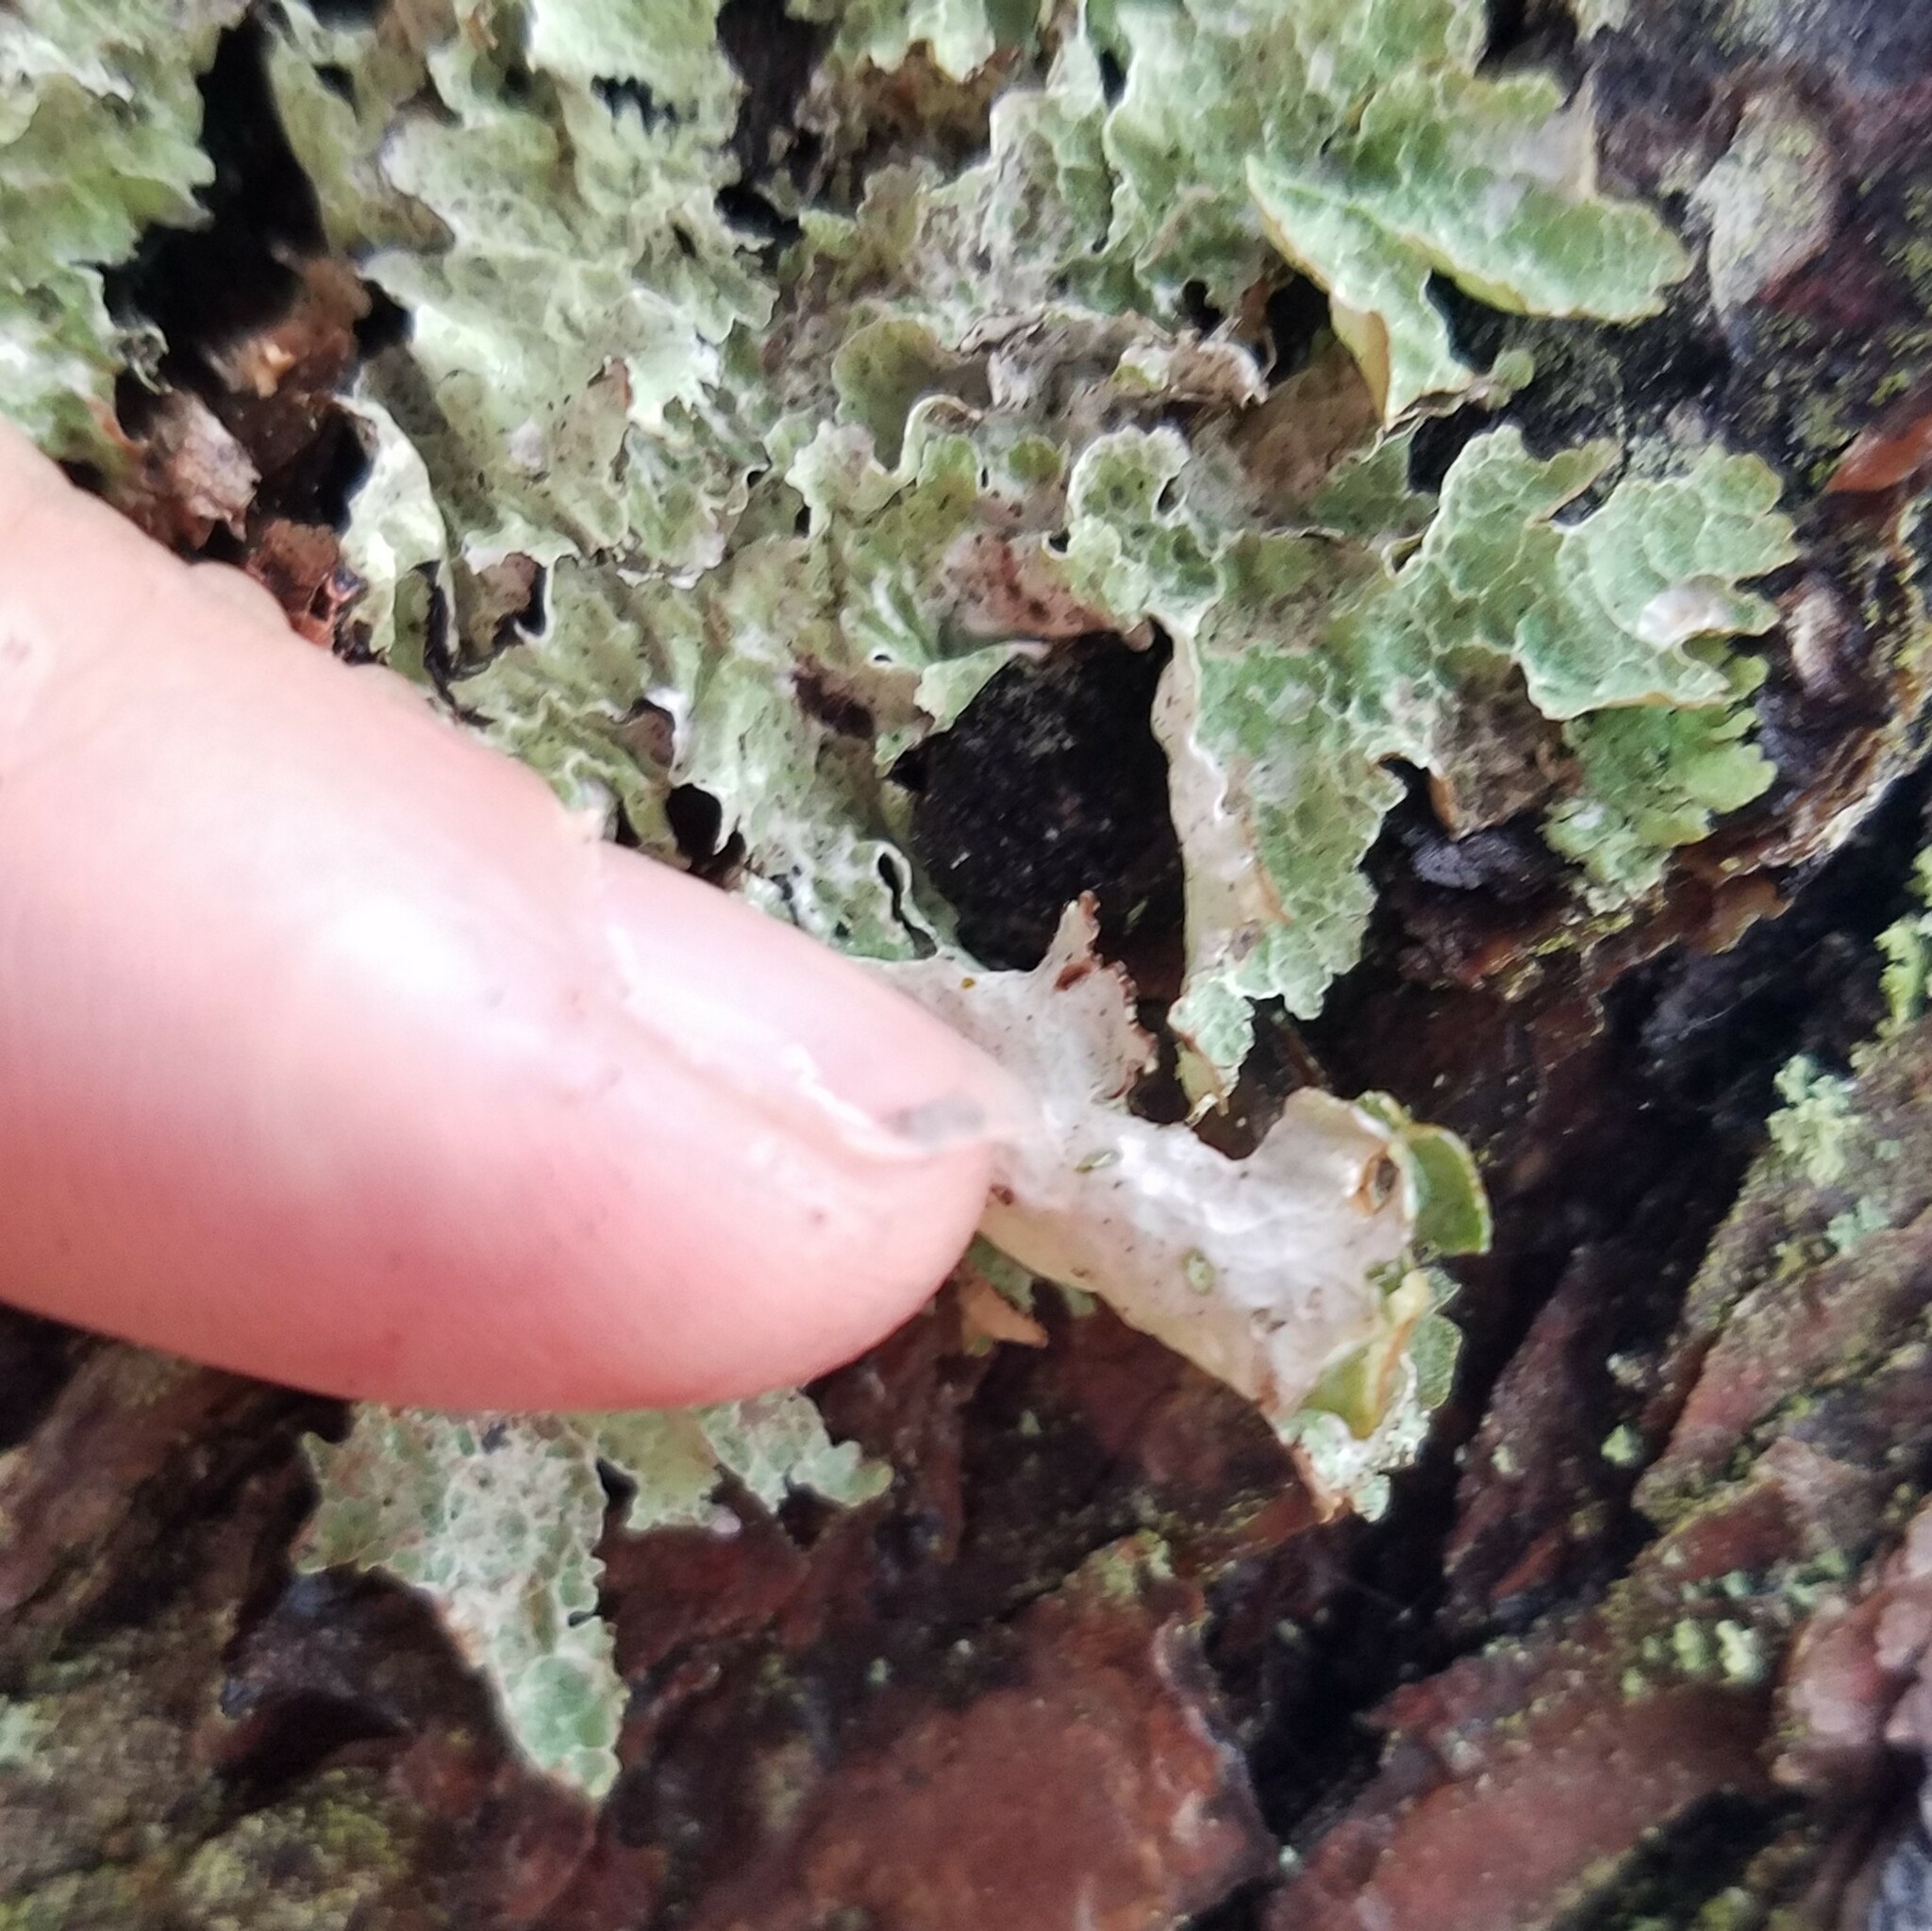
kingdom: Fungi
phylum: Ascomycota
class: Lecanoromycetes
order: Lecanorales
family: Parmeliaceae
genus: Platismatia
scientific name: Platismatia tuckermanii
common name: Crumpled rag lichen
